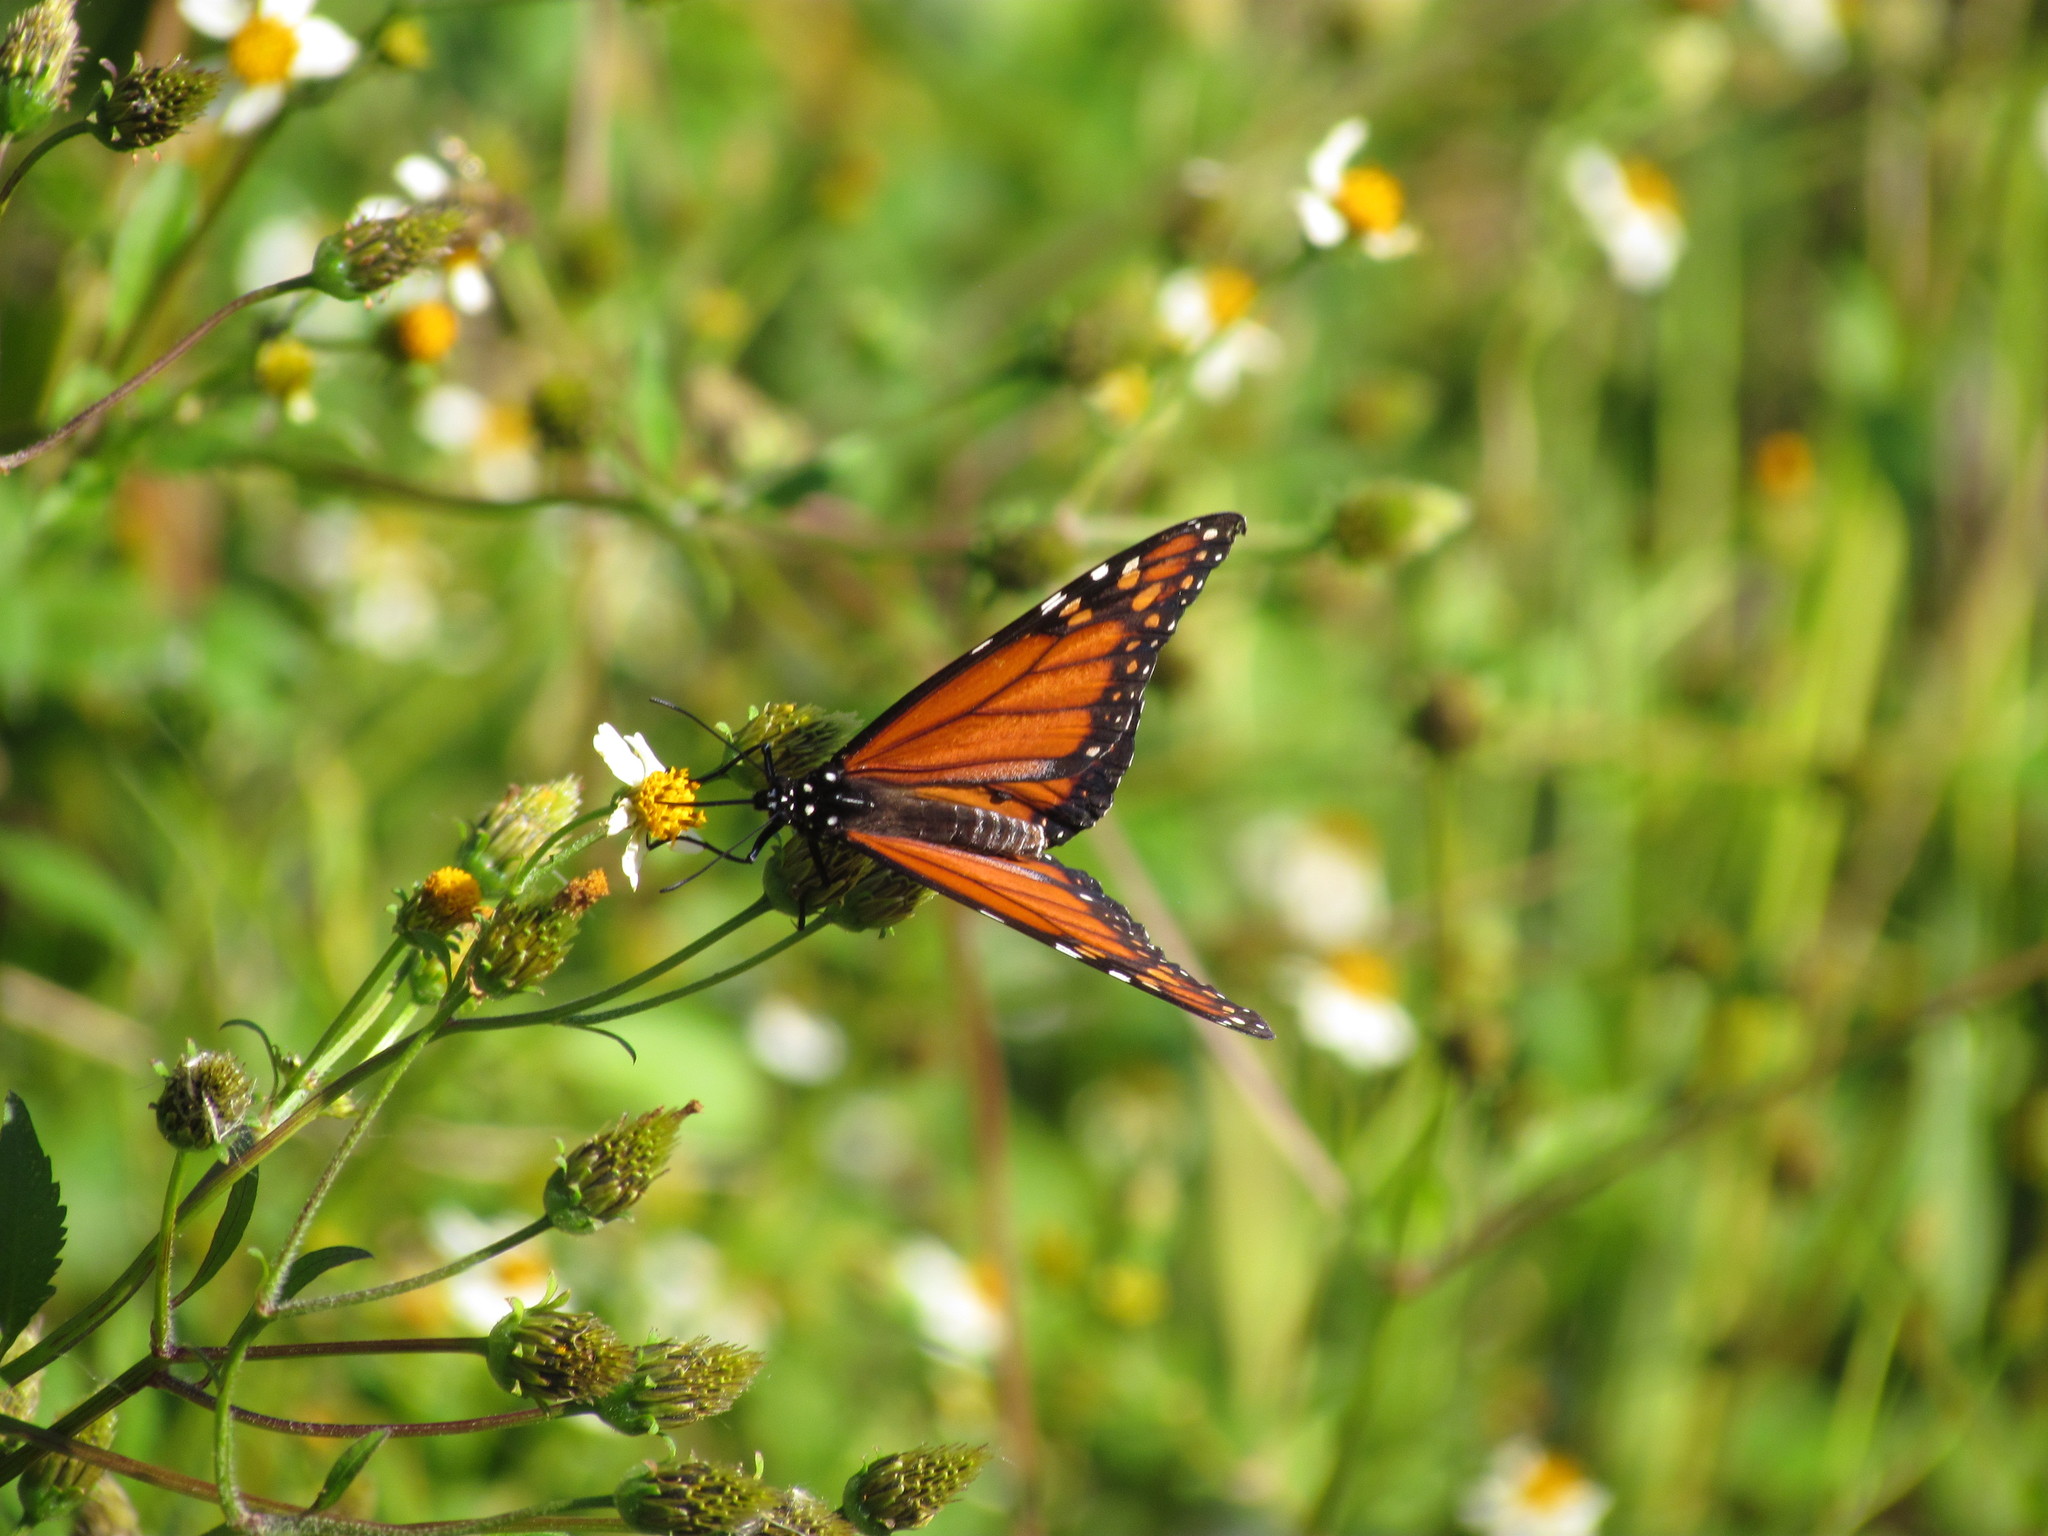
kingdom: Animalia
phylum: Arthropoda
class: Insecta
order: Lepidoptera
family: Nymphalidae
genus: Danaus
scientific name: Danaus erippus
